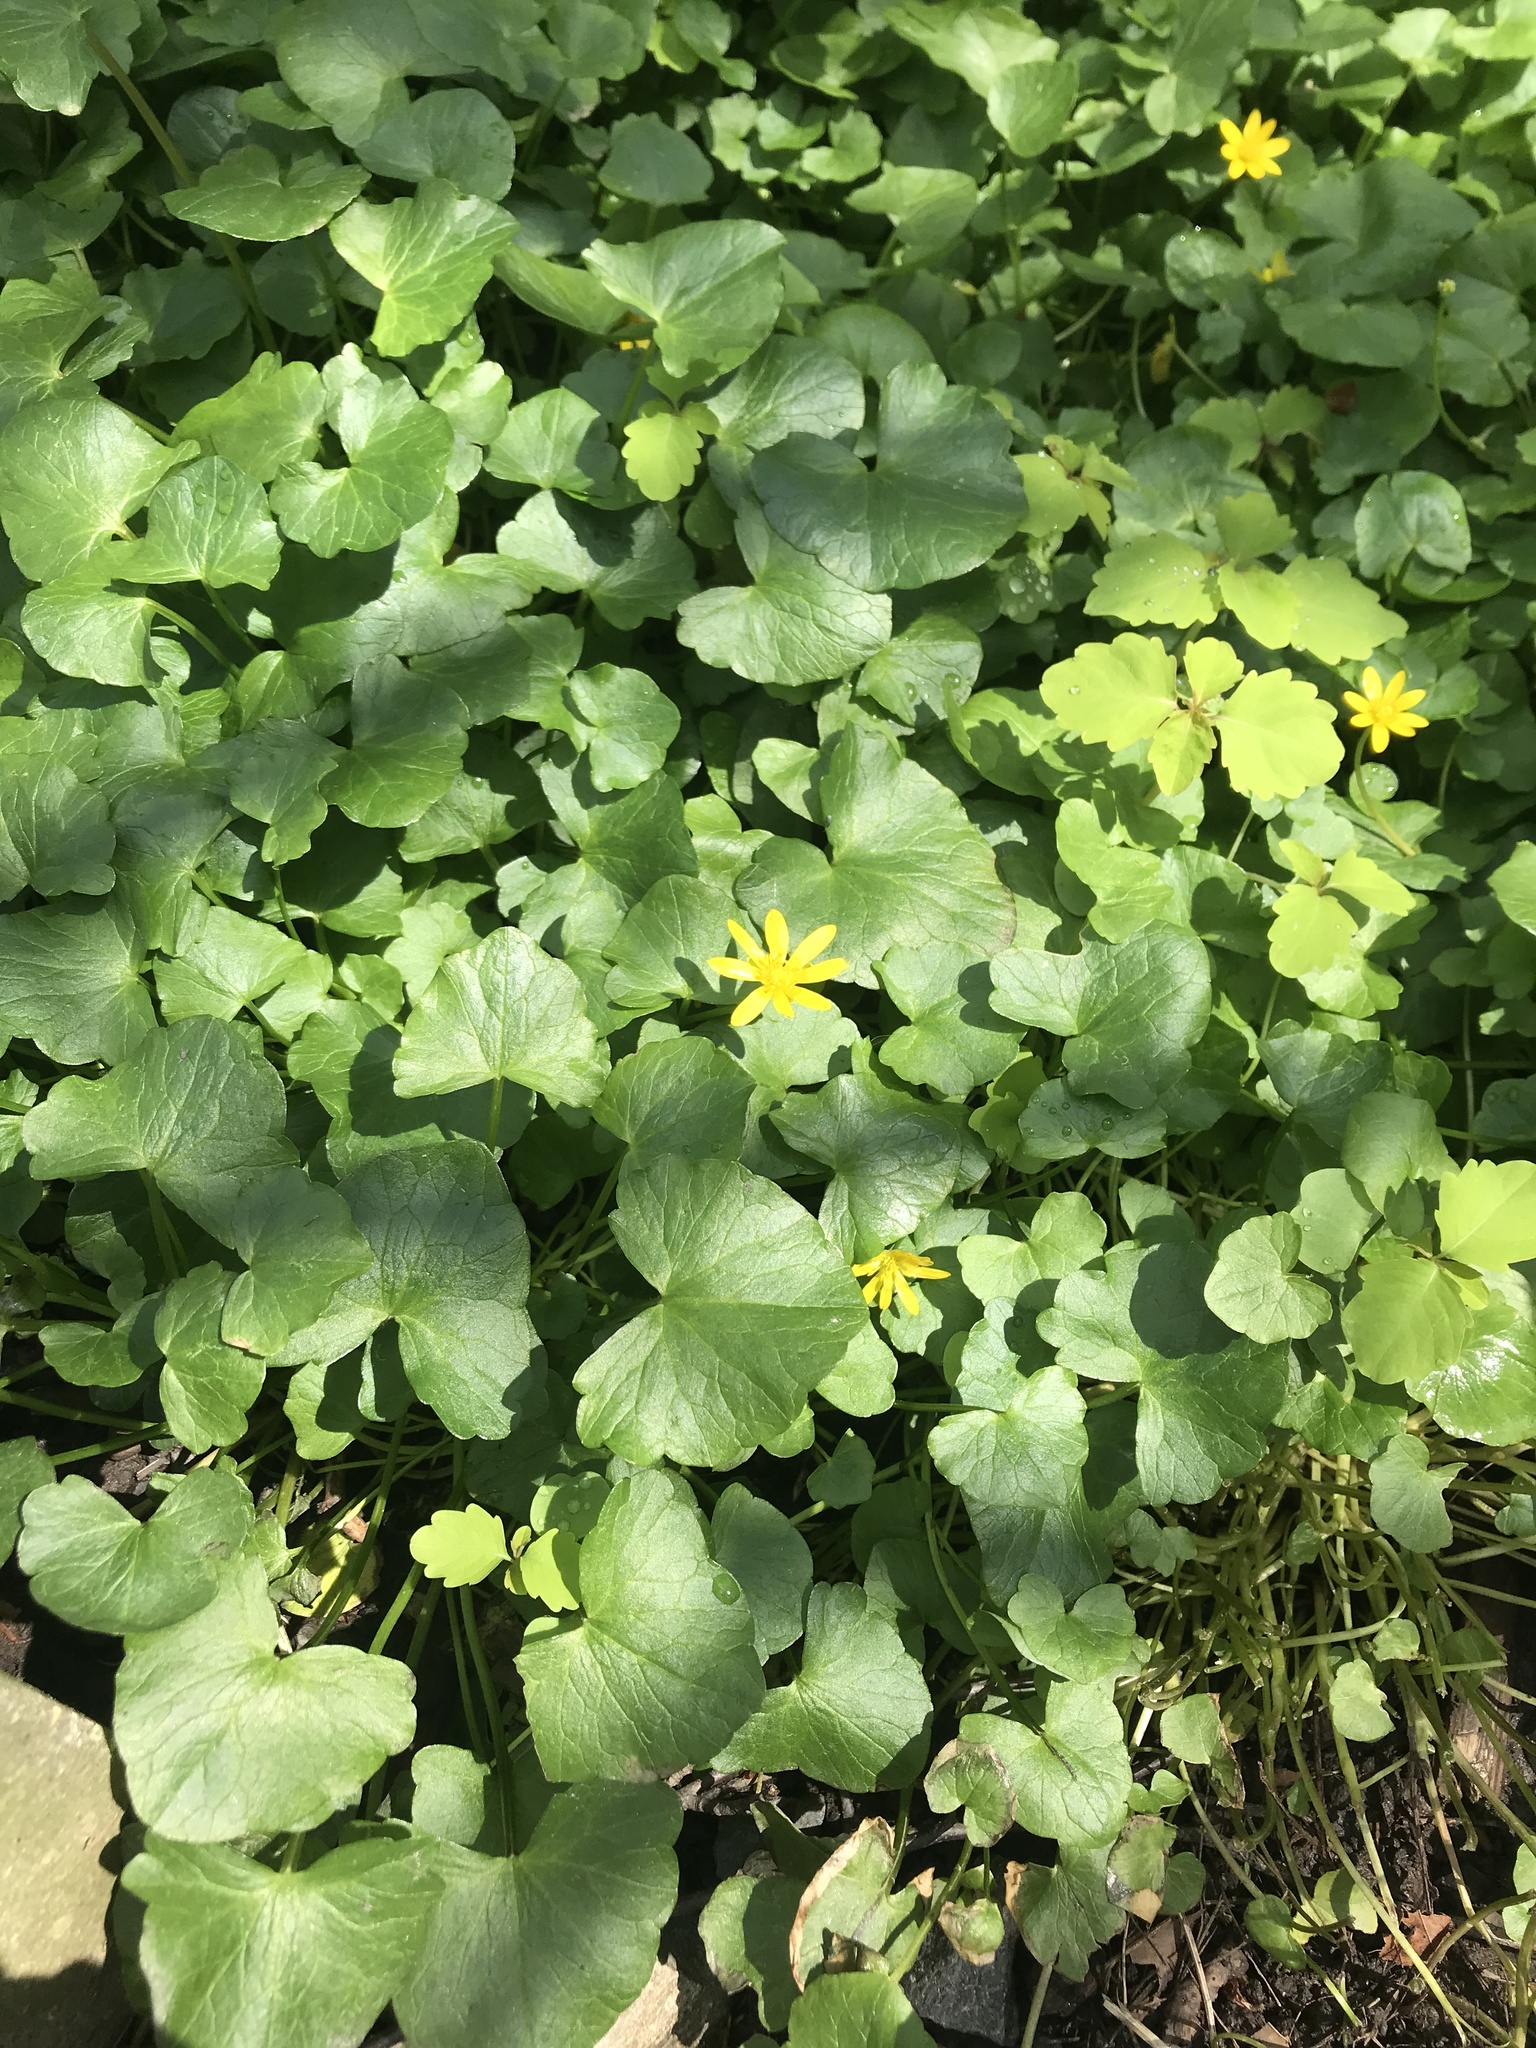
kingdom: Plantae
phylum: Tracheophyta
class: Magnoliopsida
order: Ranunculales
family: Ranunculaceae
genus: Ficaria
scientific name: Ficaria verna
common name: Lesser celandine
